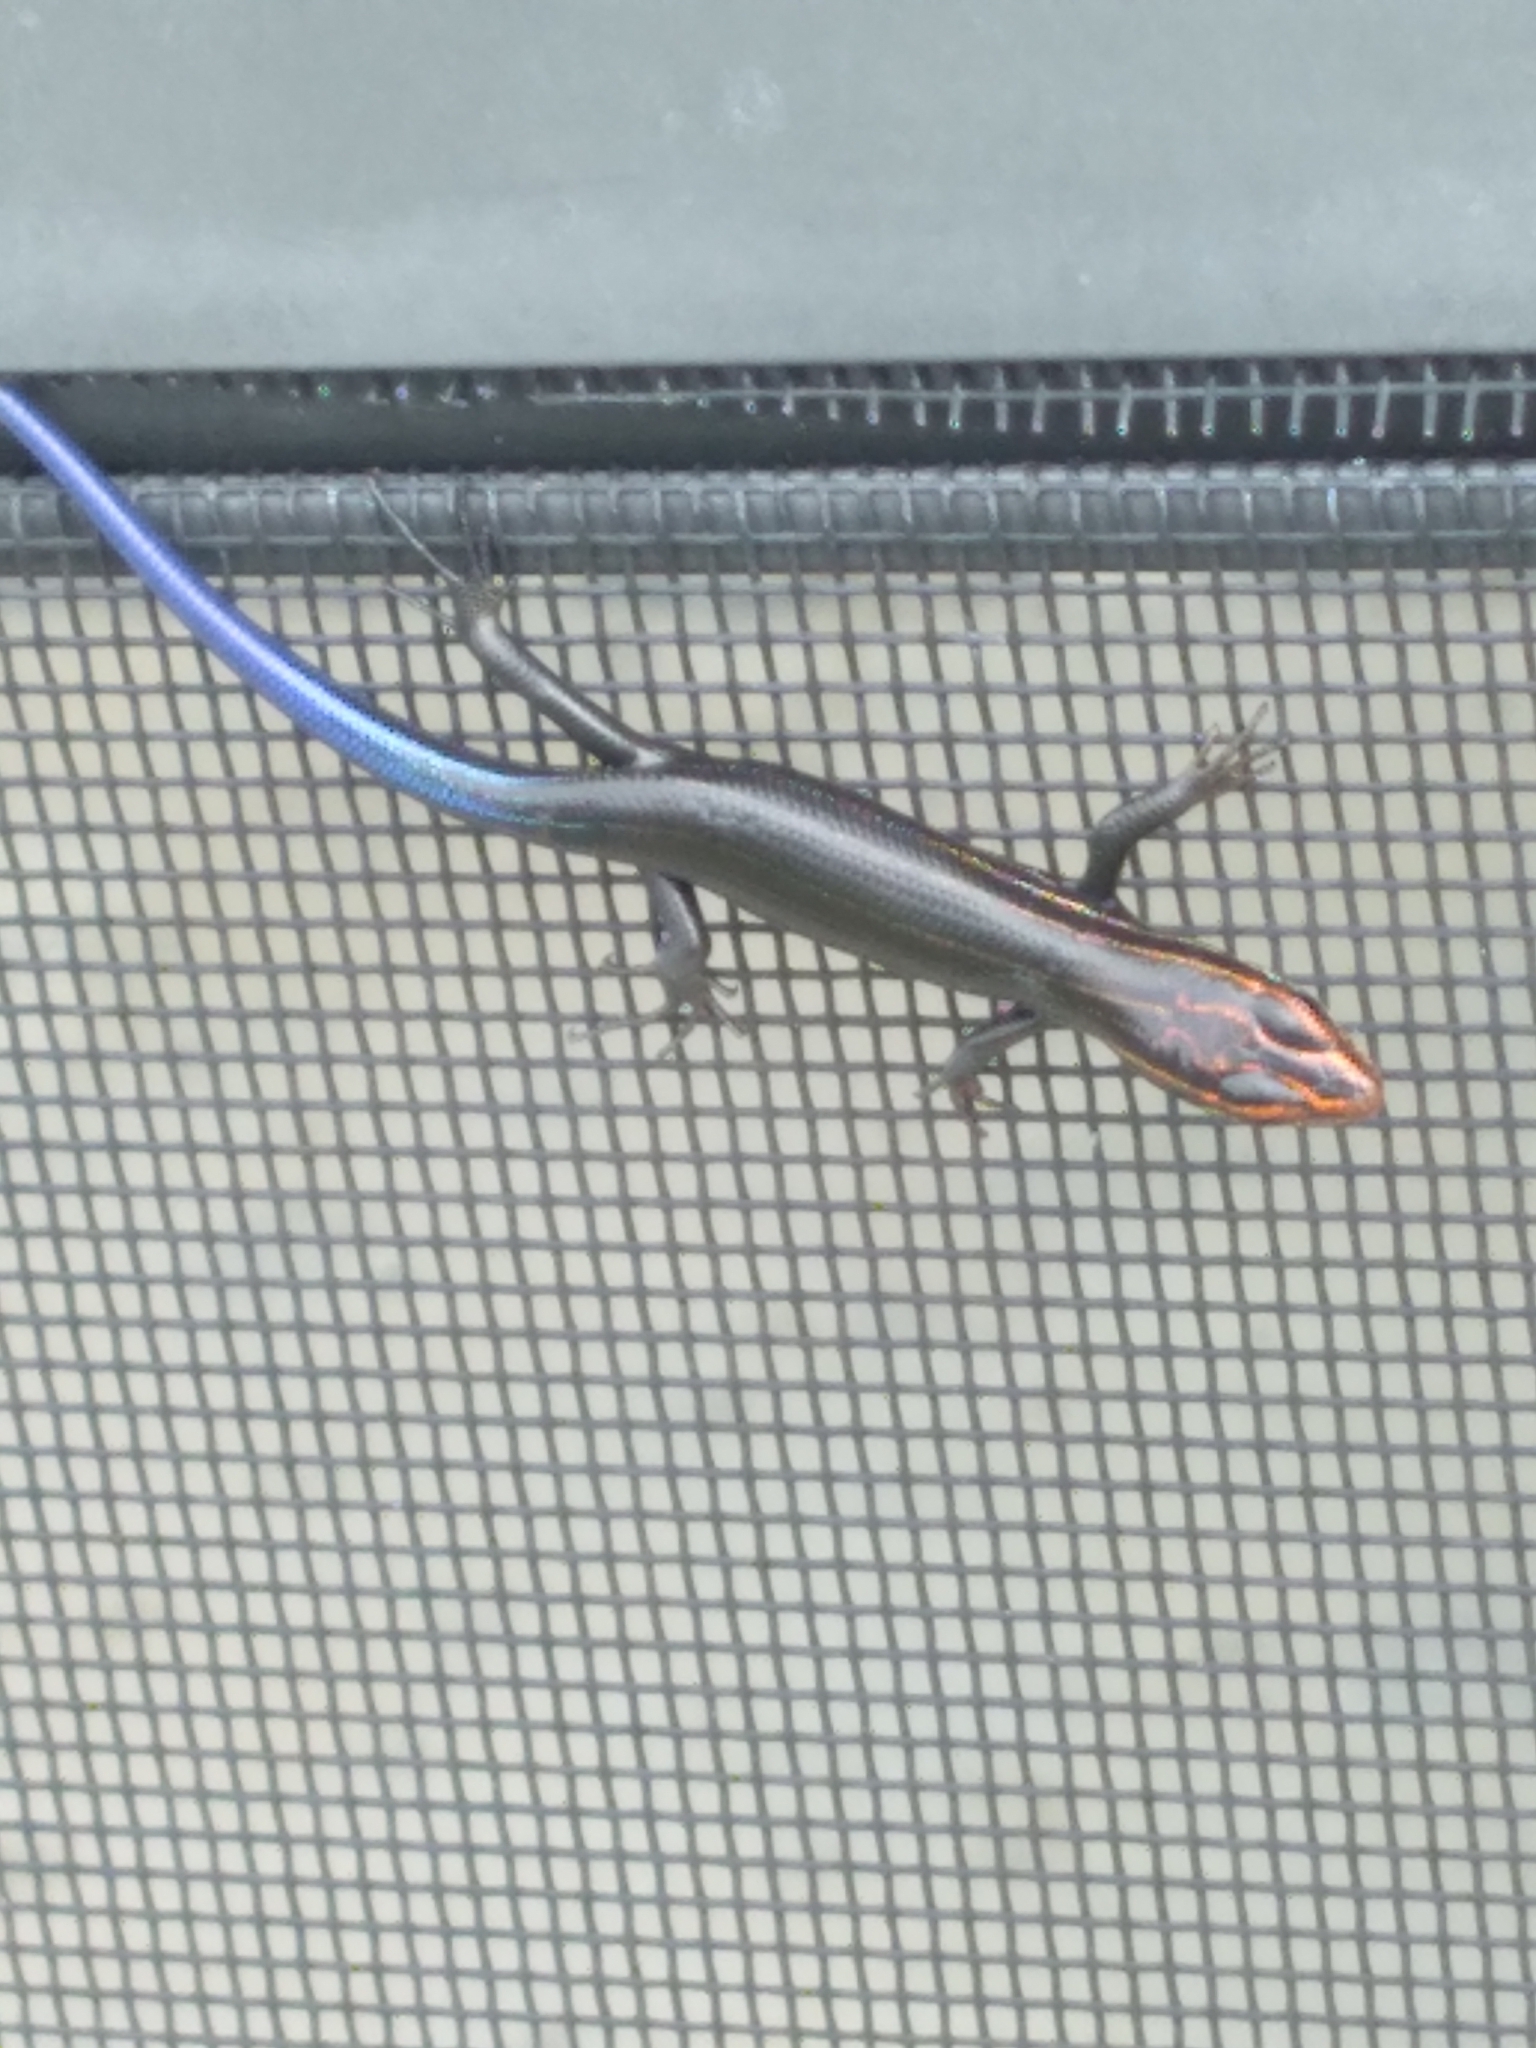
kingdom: Animalia
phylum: Chordata
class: Squamata
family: Scincidae
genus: Plestiodon
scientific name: Plestiodon inexpectatus
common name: Southeastern five-lined skink
